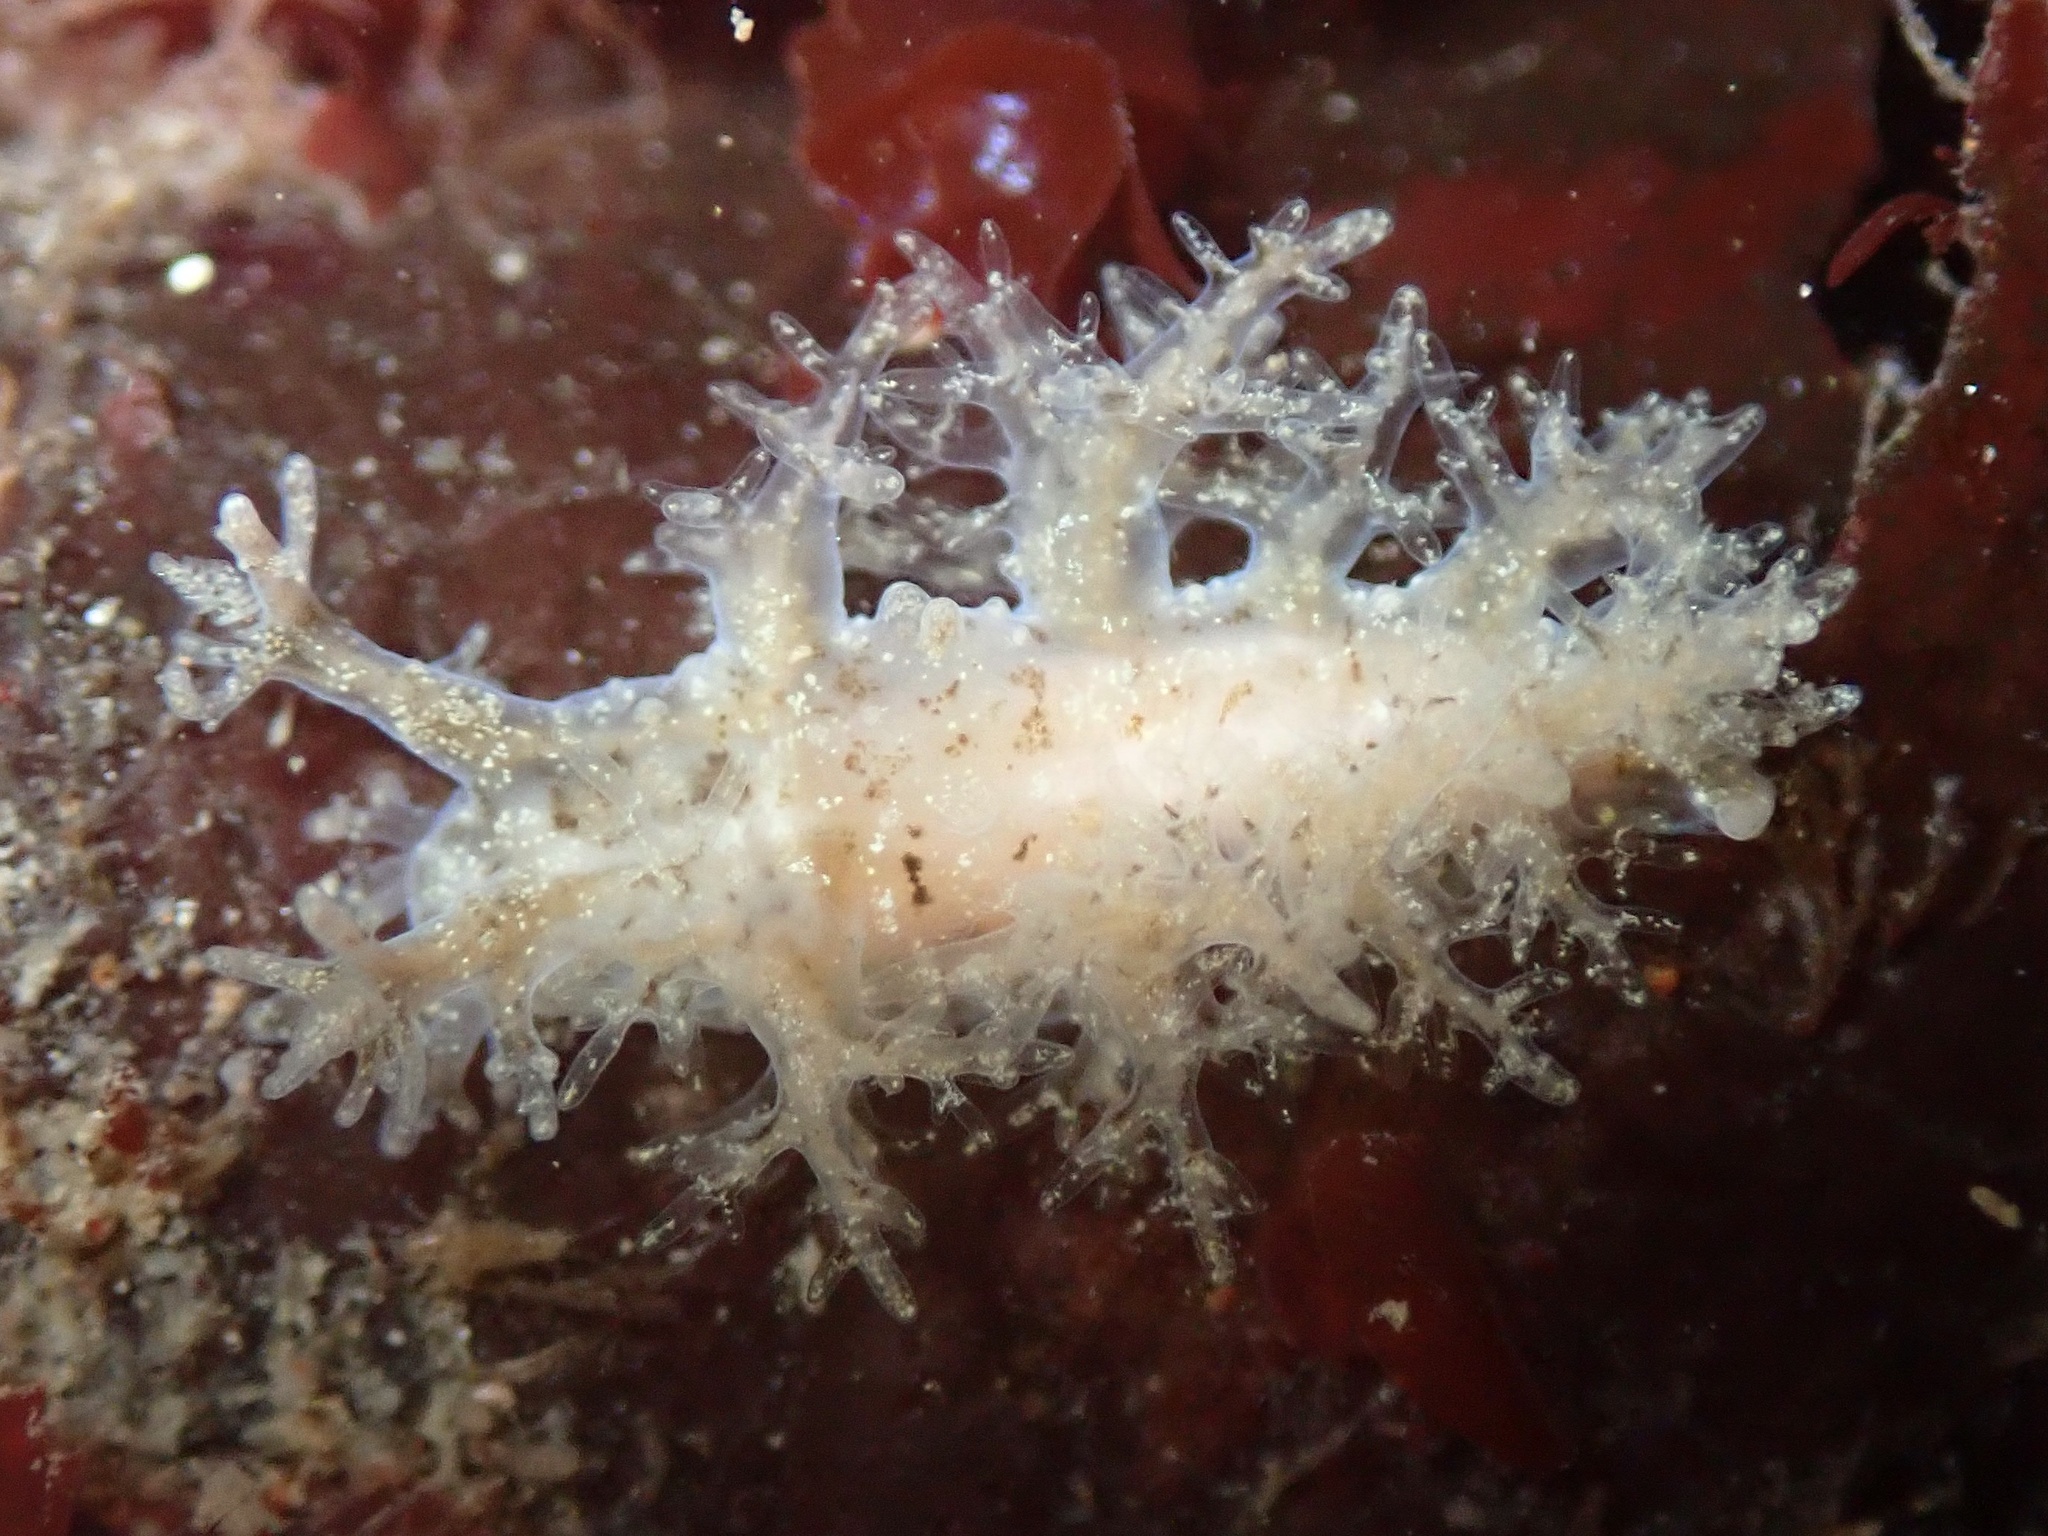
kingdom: Animalia
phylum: Mollusca
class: Gastropoda
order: Nudibranchia
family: Dendronotidae
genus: Dendronotus
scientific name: Dendronotus venustus
